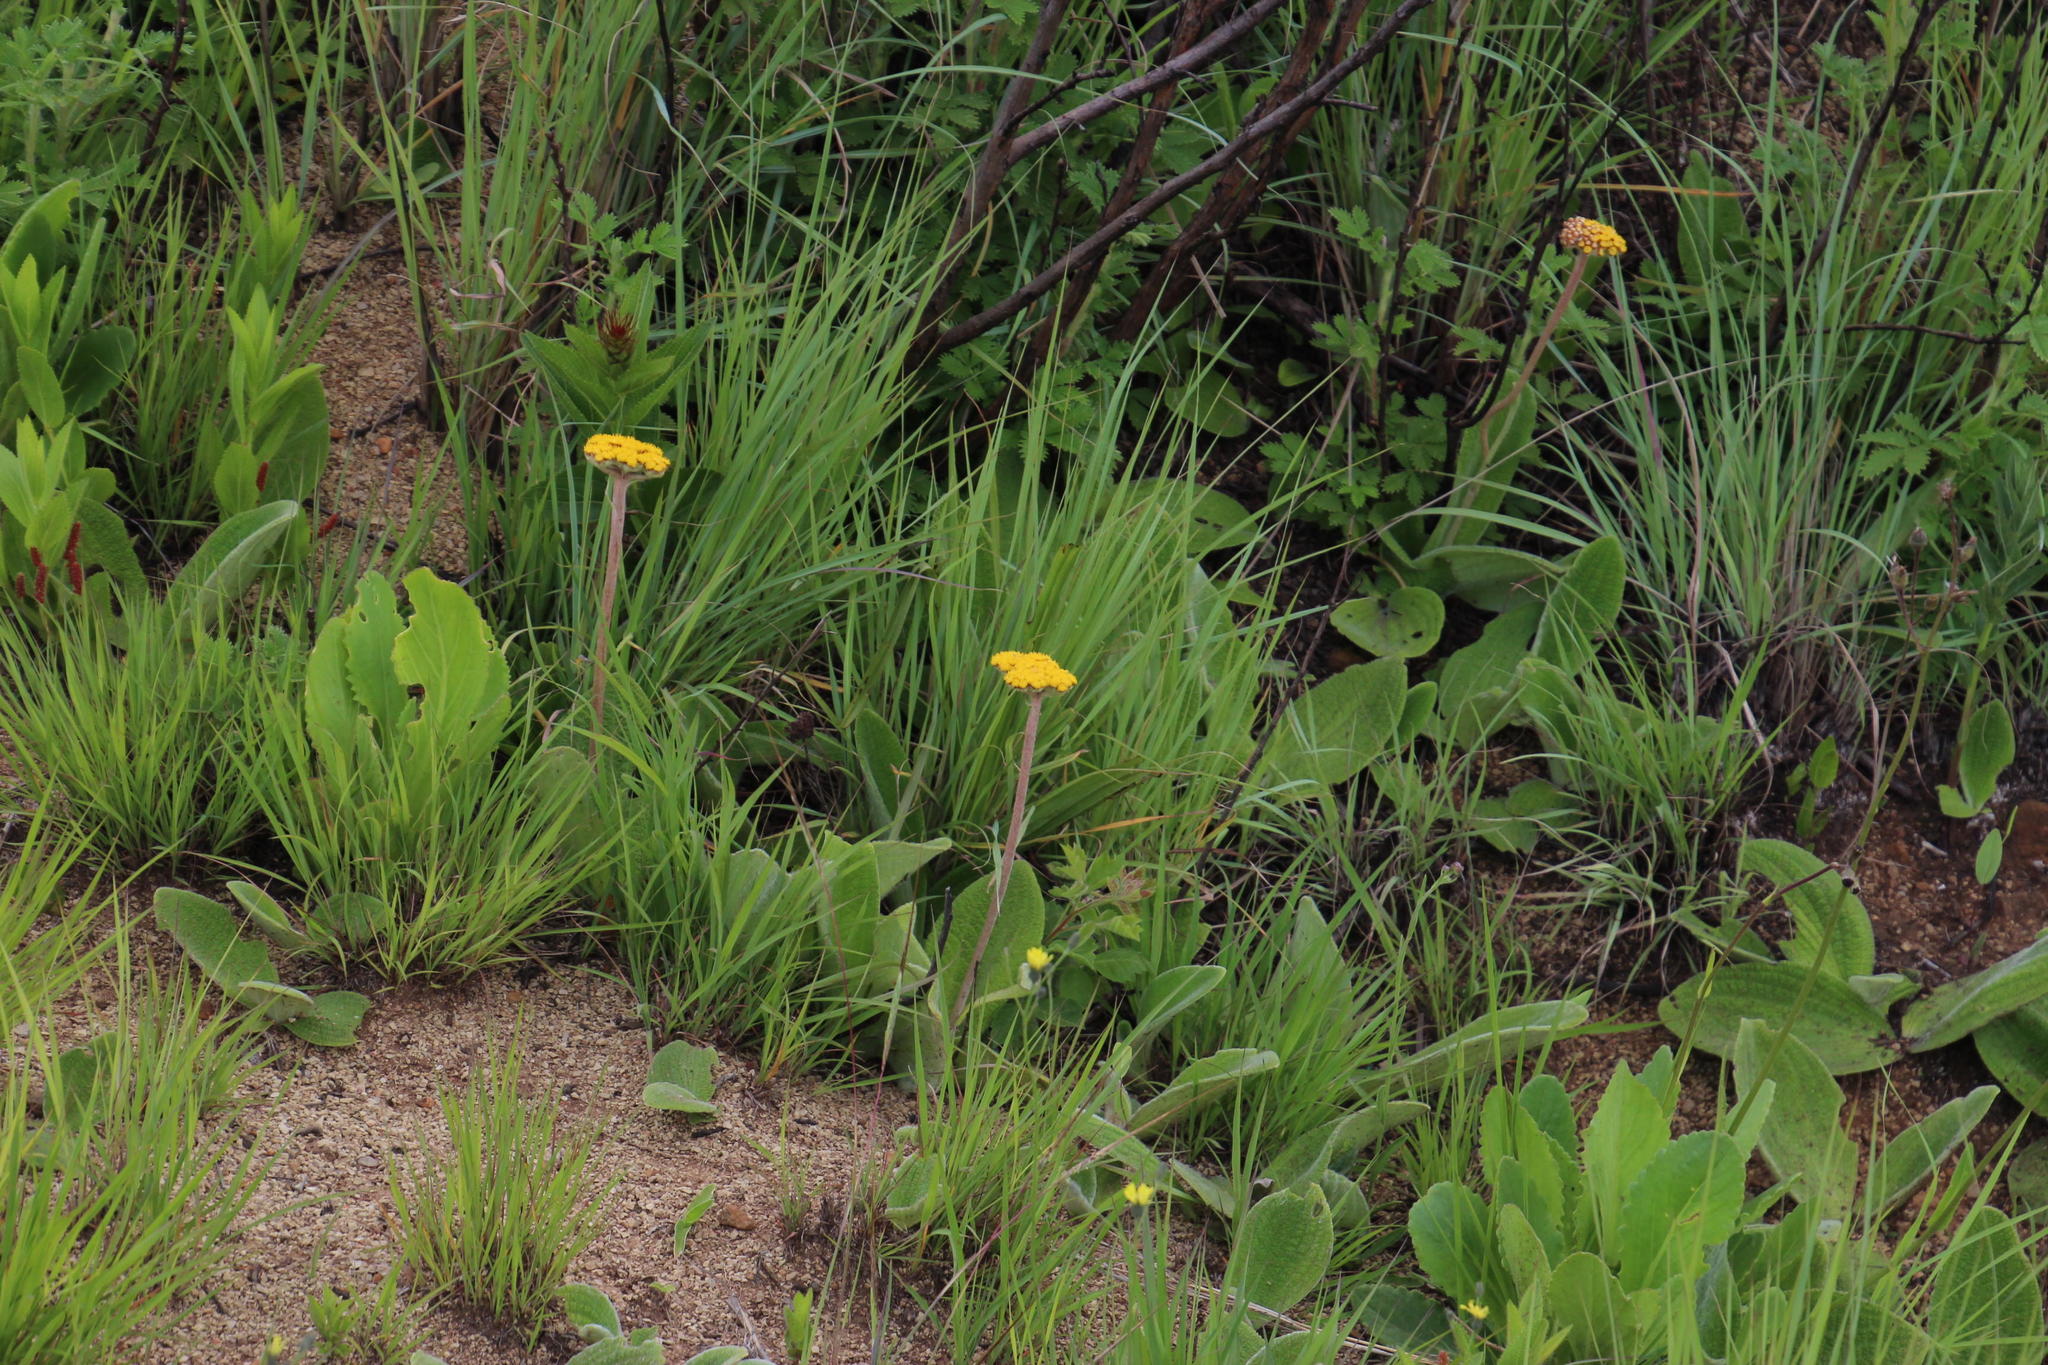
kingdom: Plantae
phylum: Tracheophyta
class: Magnoliopsida
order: Asterales
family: Asteraceae
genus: Helichrysum
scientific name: Helichrysum nudifolium
